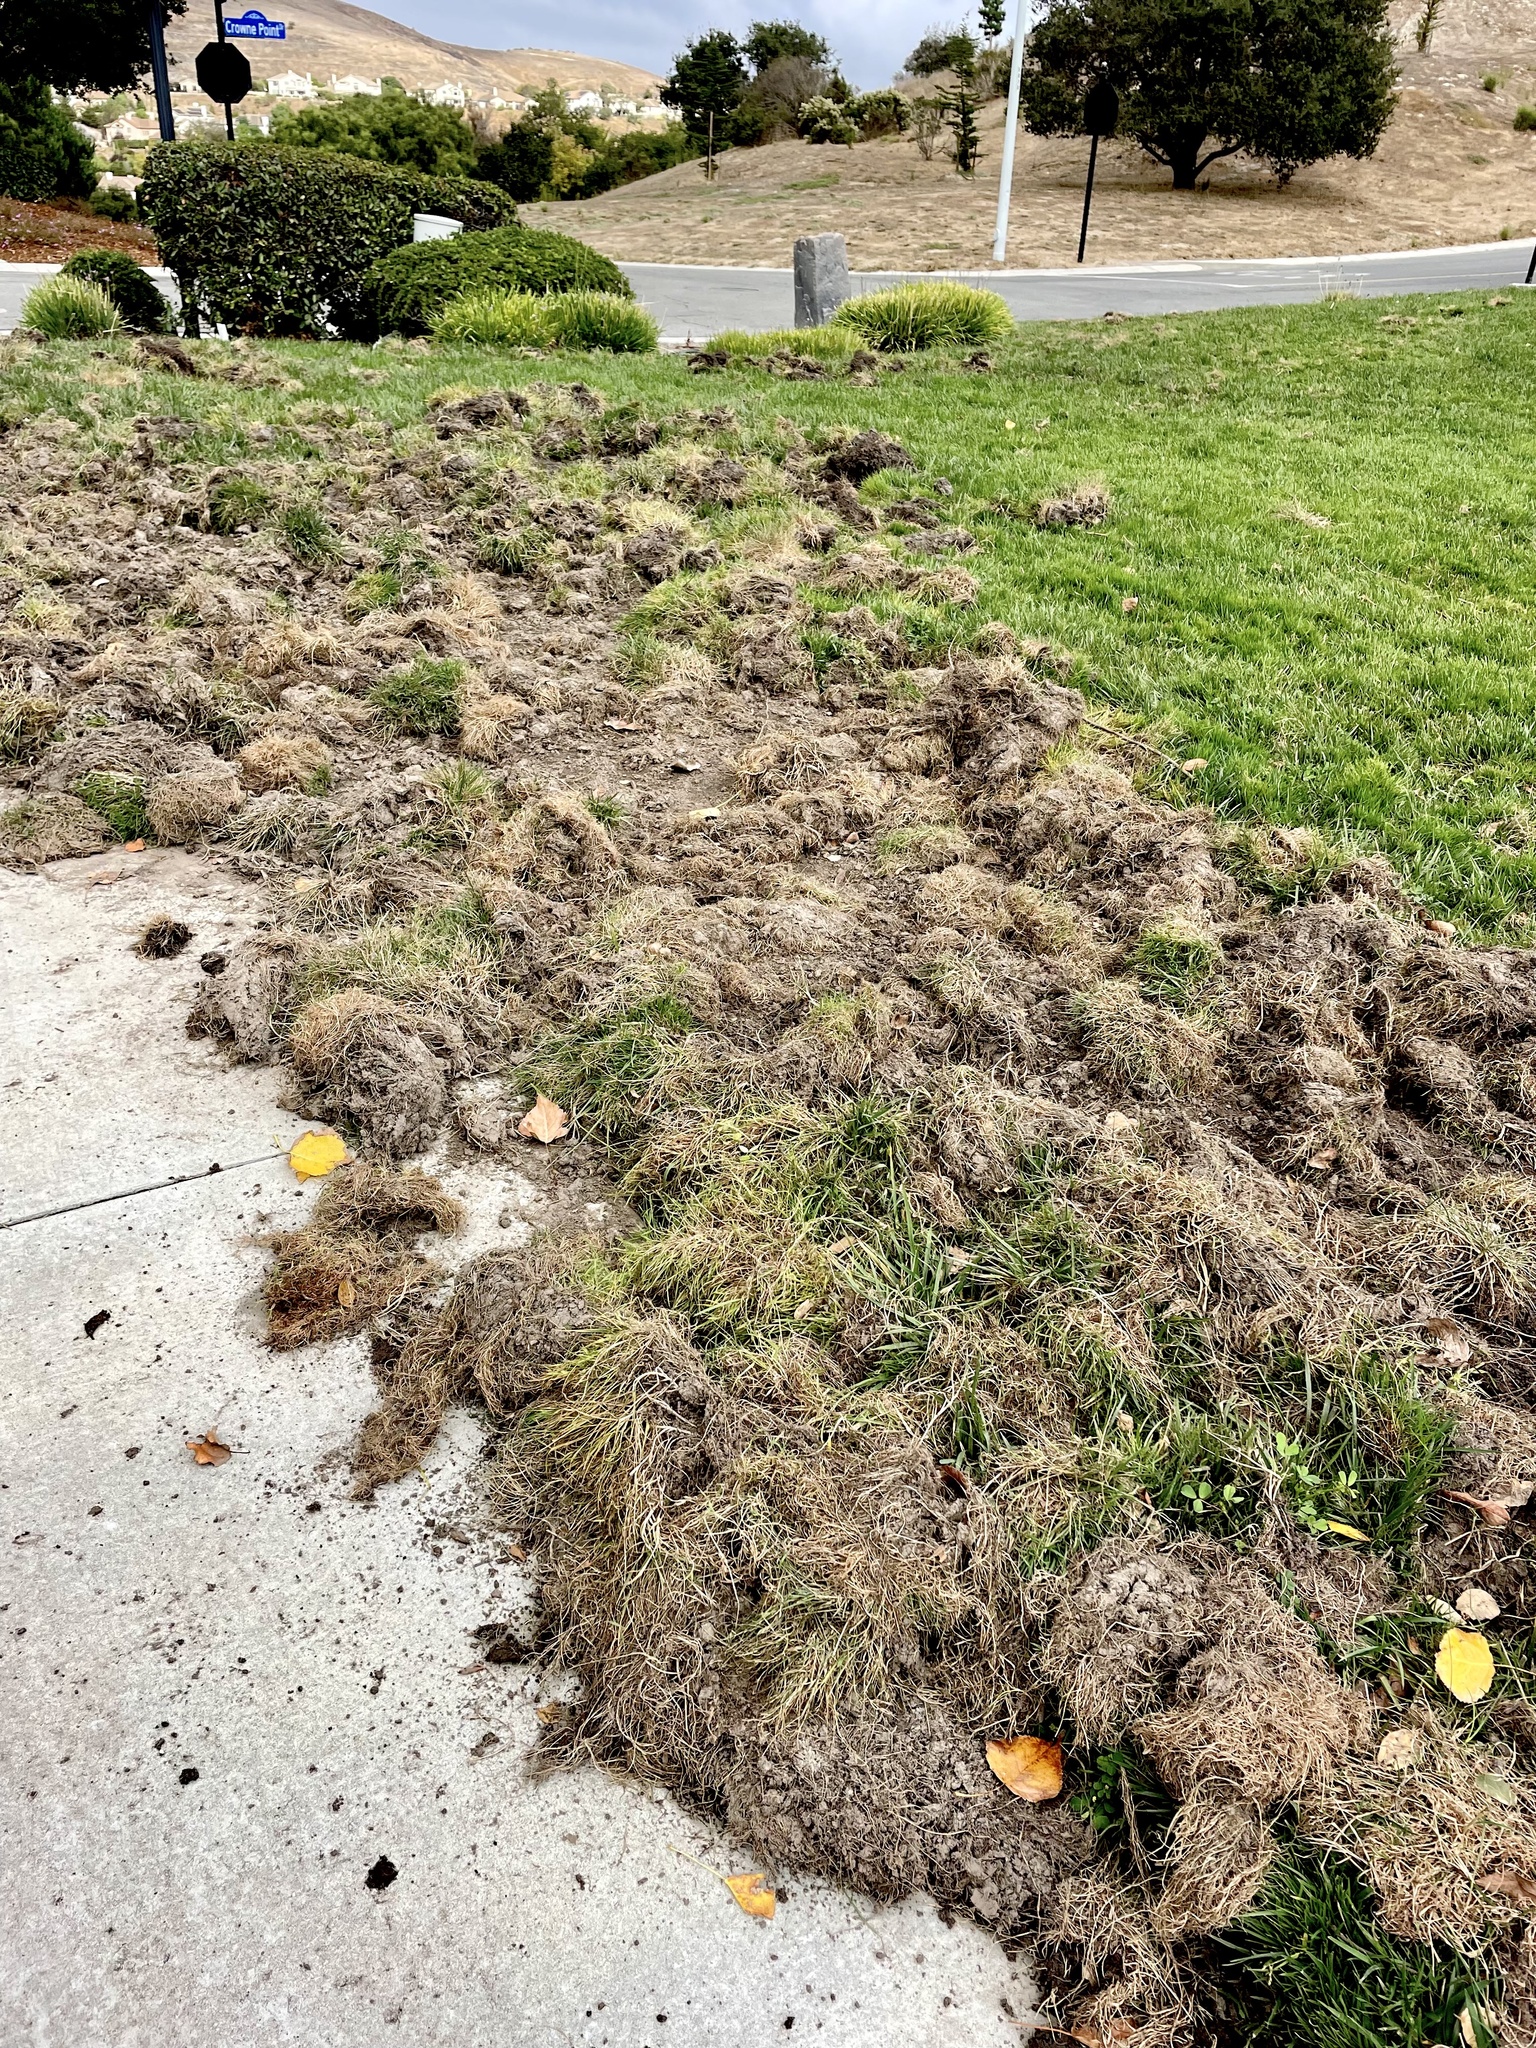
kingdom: Animalia
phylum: Chordata
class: Mammalia
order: Artiodactyla
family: Suidae
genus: Sus
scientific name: Sus scrofa
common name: Wild boar
